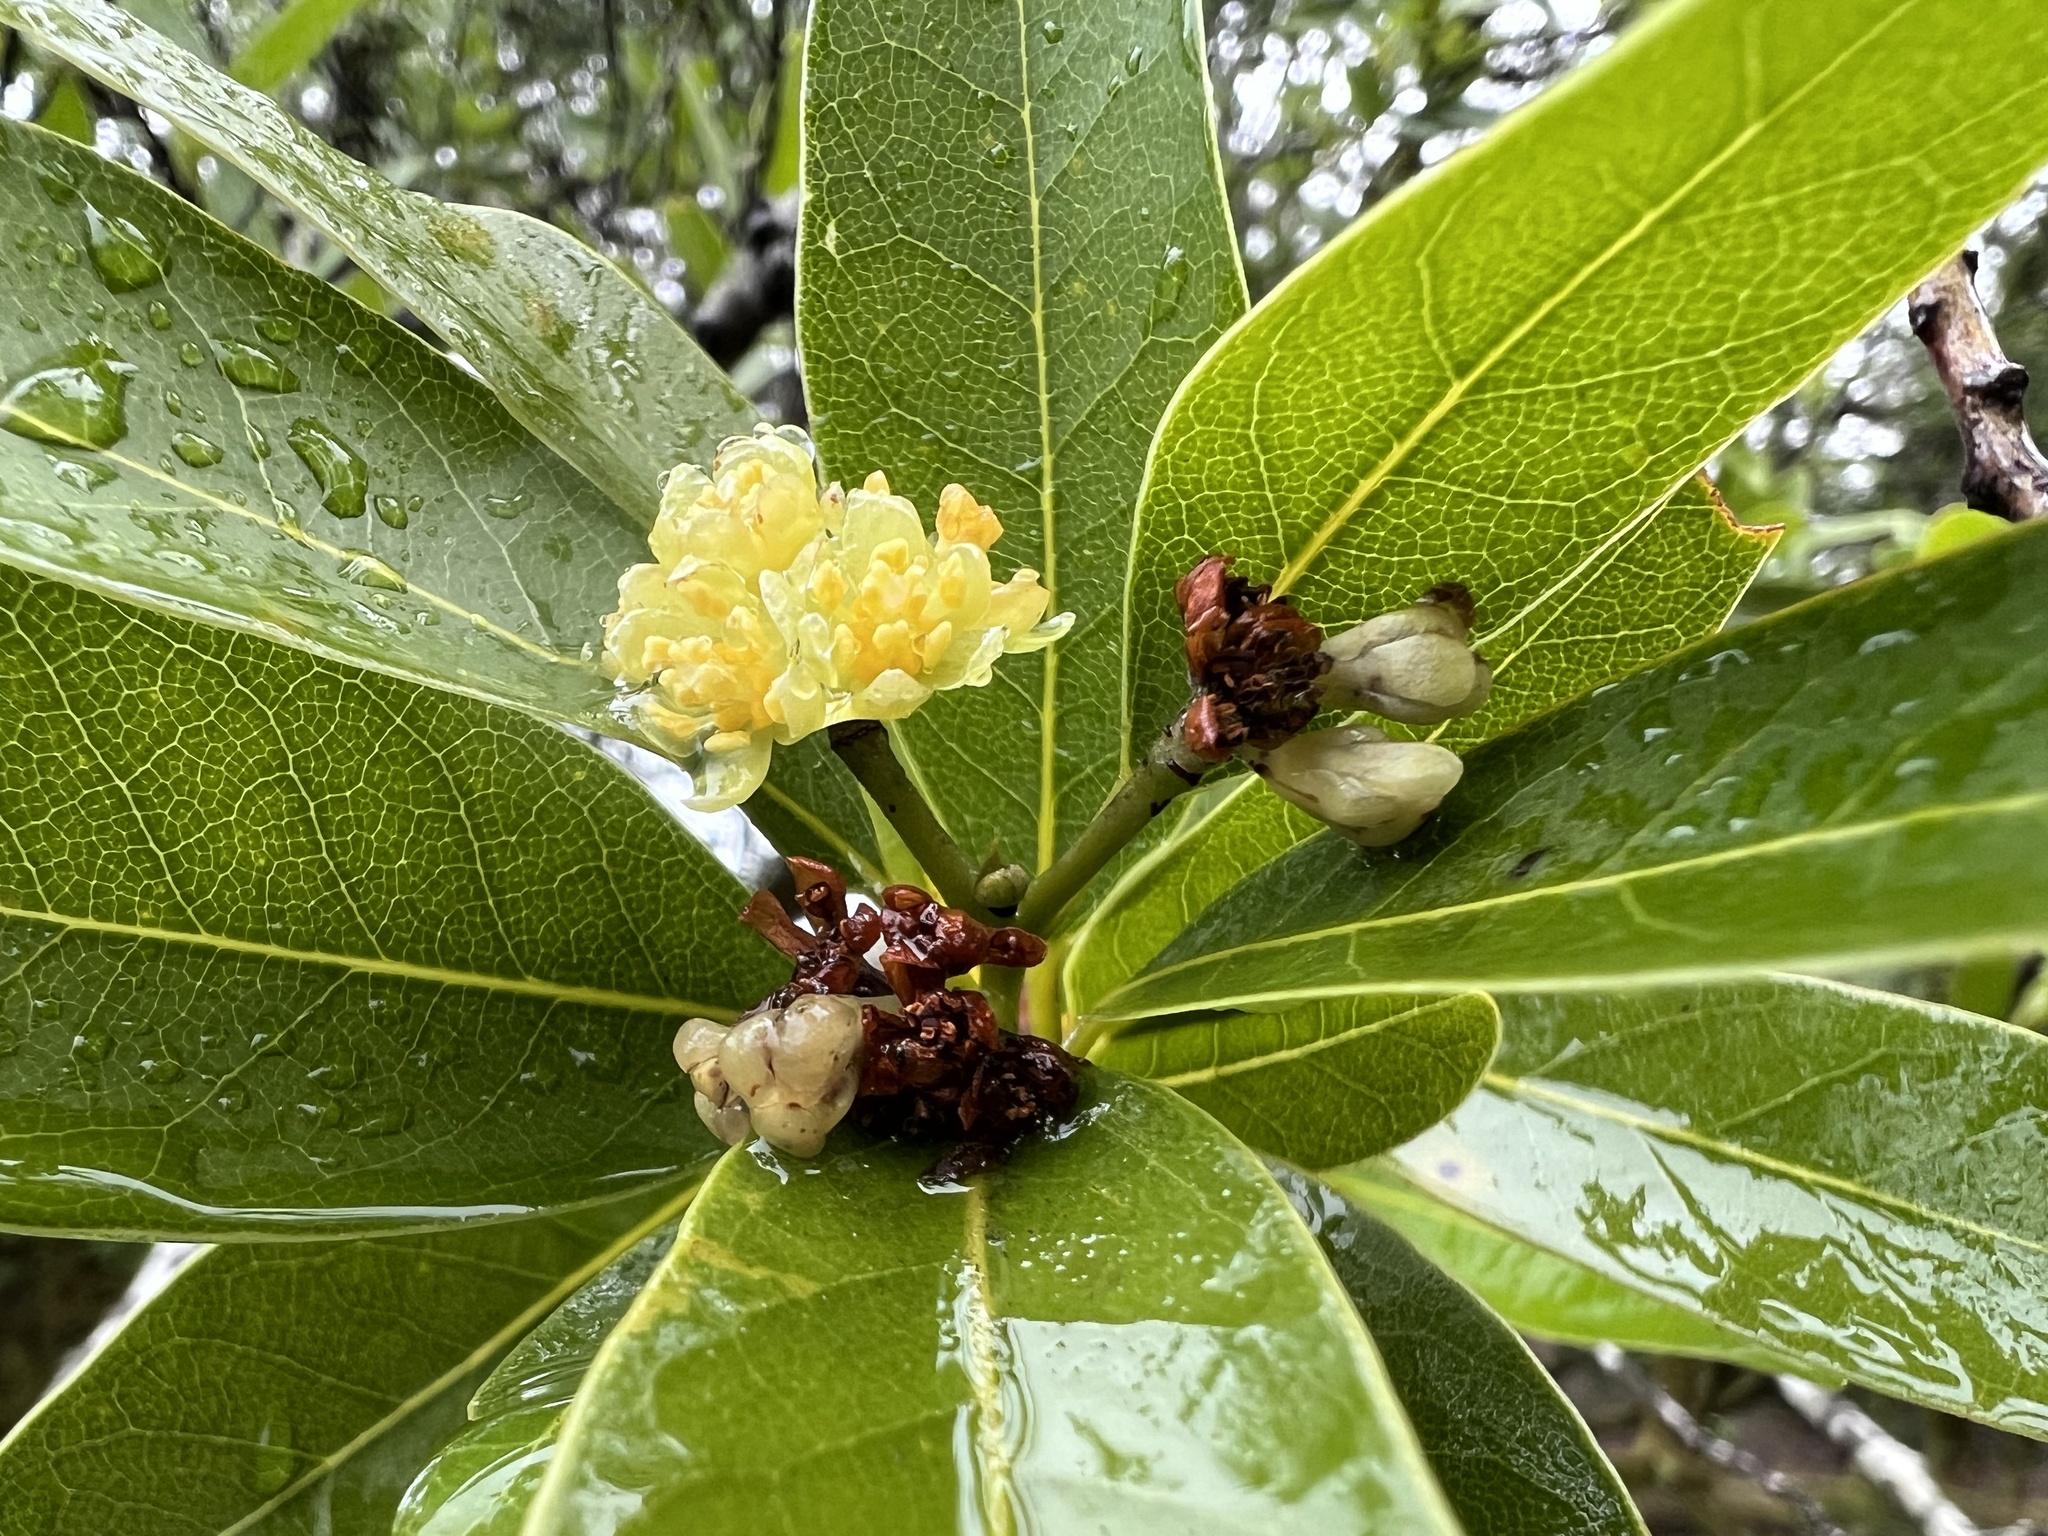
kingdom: Plantae
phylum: Tracheophyta
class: Magnoliopsida
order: Laurales
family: Lauraceae
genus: Umbellularia
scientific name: Umbellularia californica
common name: California bay
